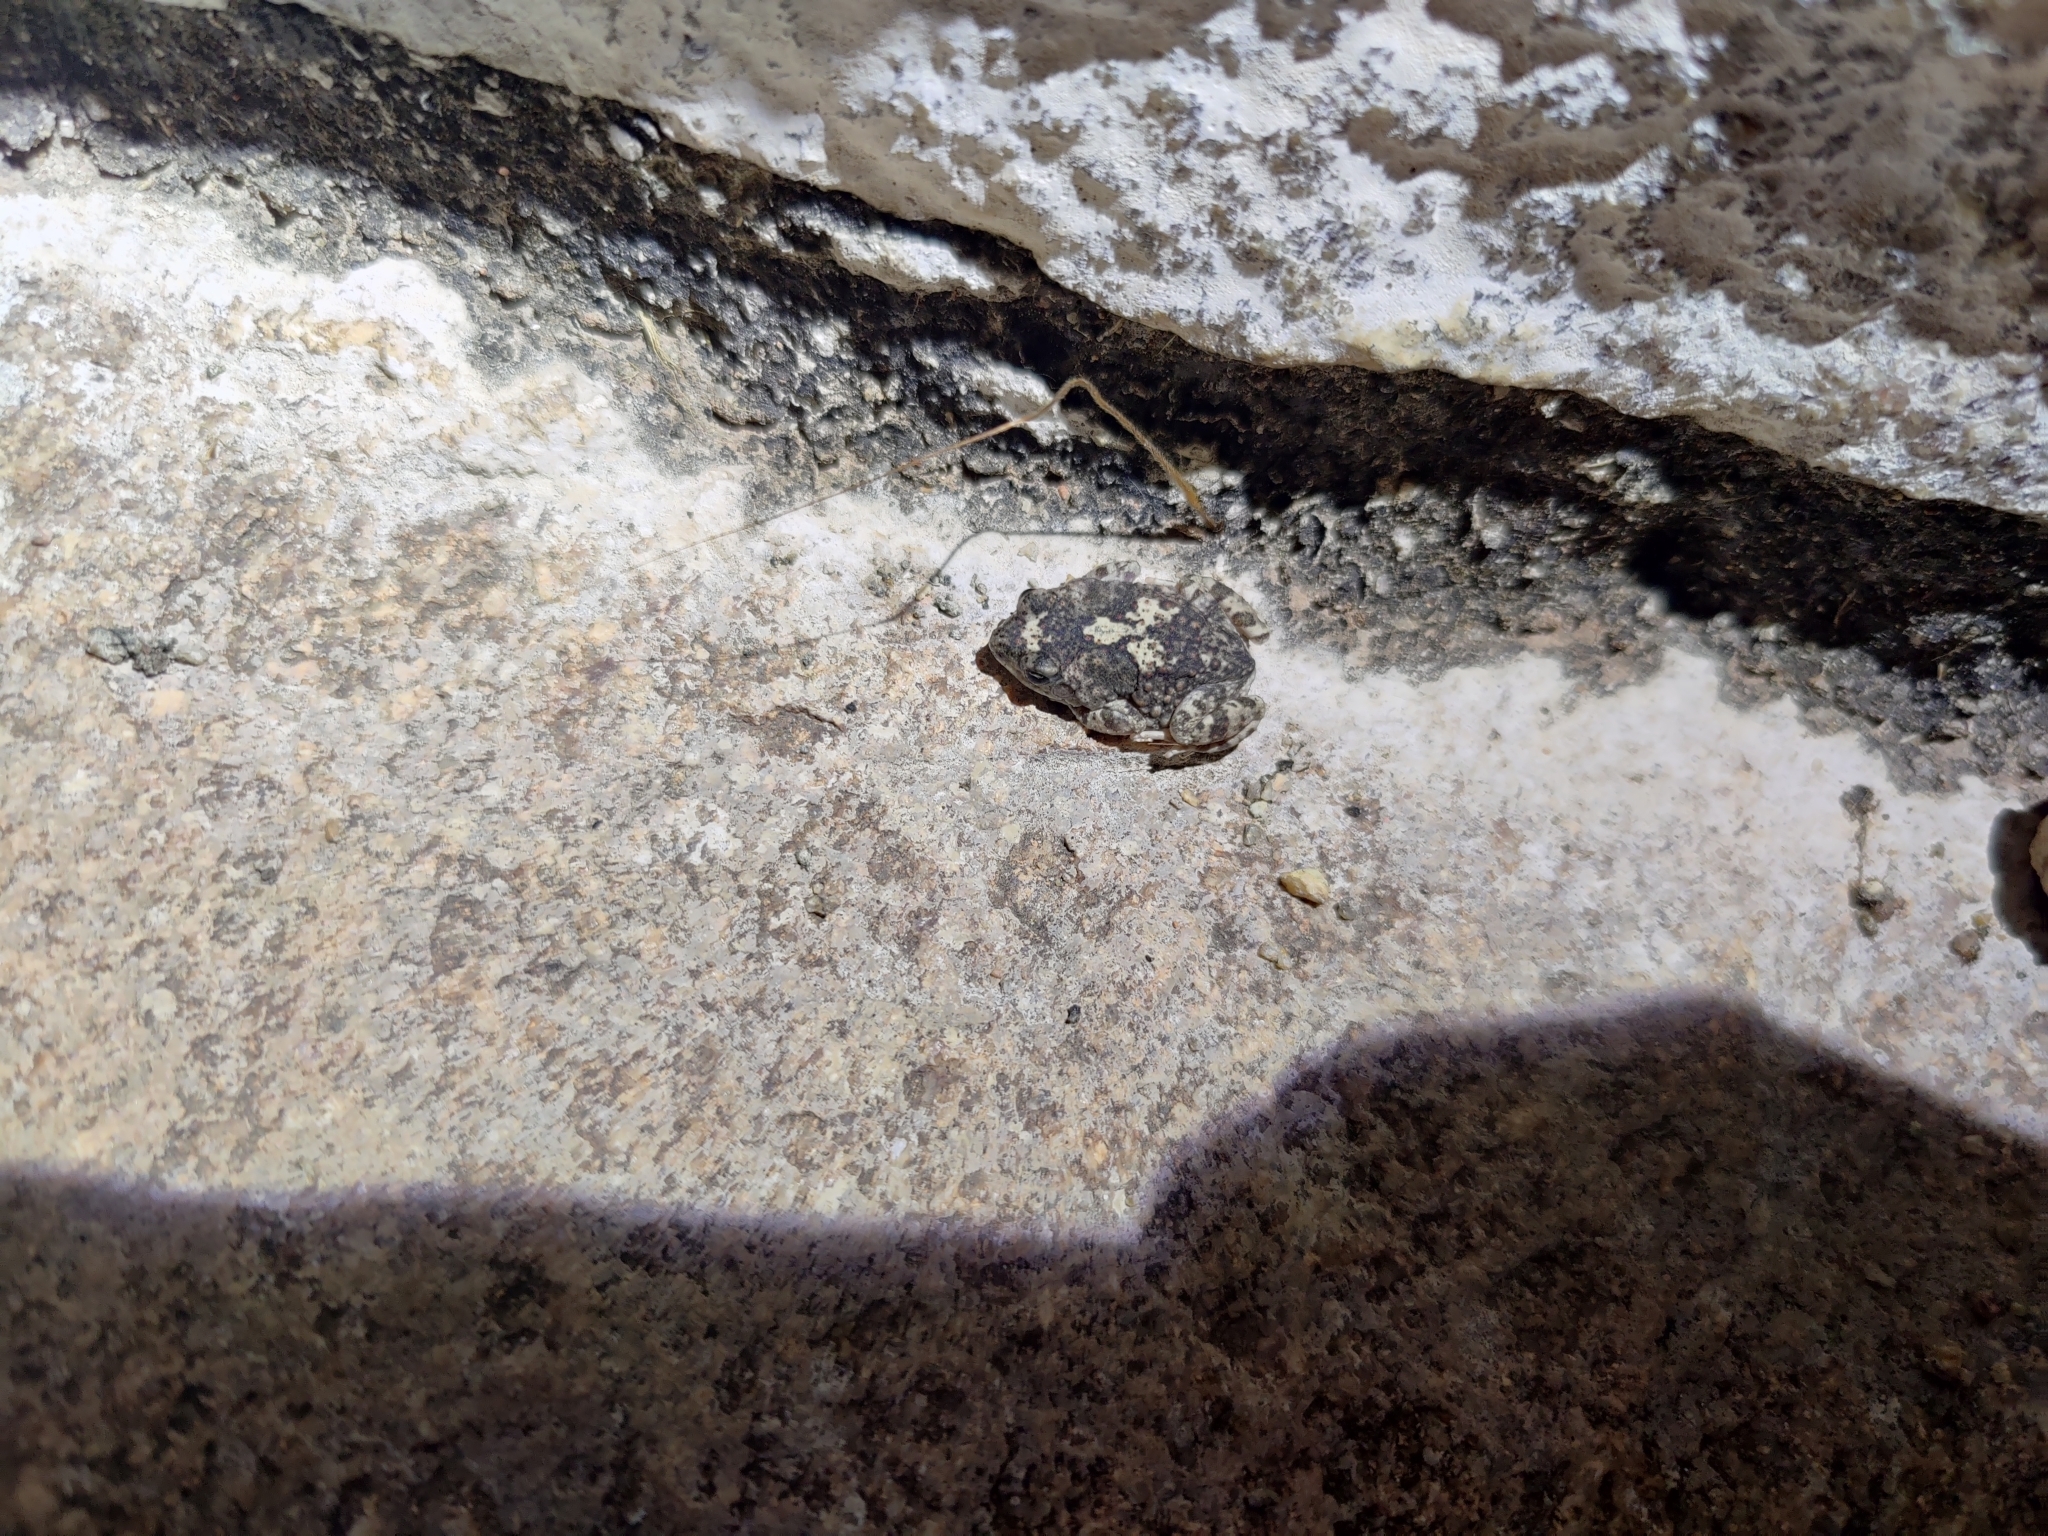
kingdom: Animalia
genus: Firouzophrynus
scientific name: Firouzophrynus
